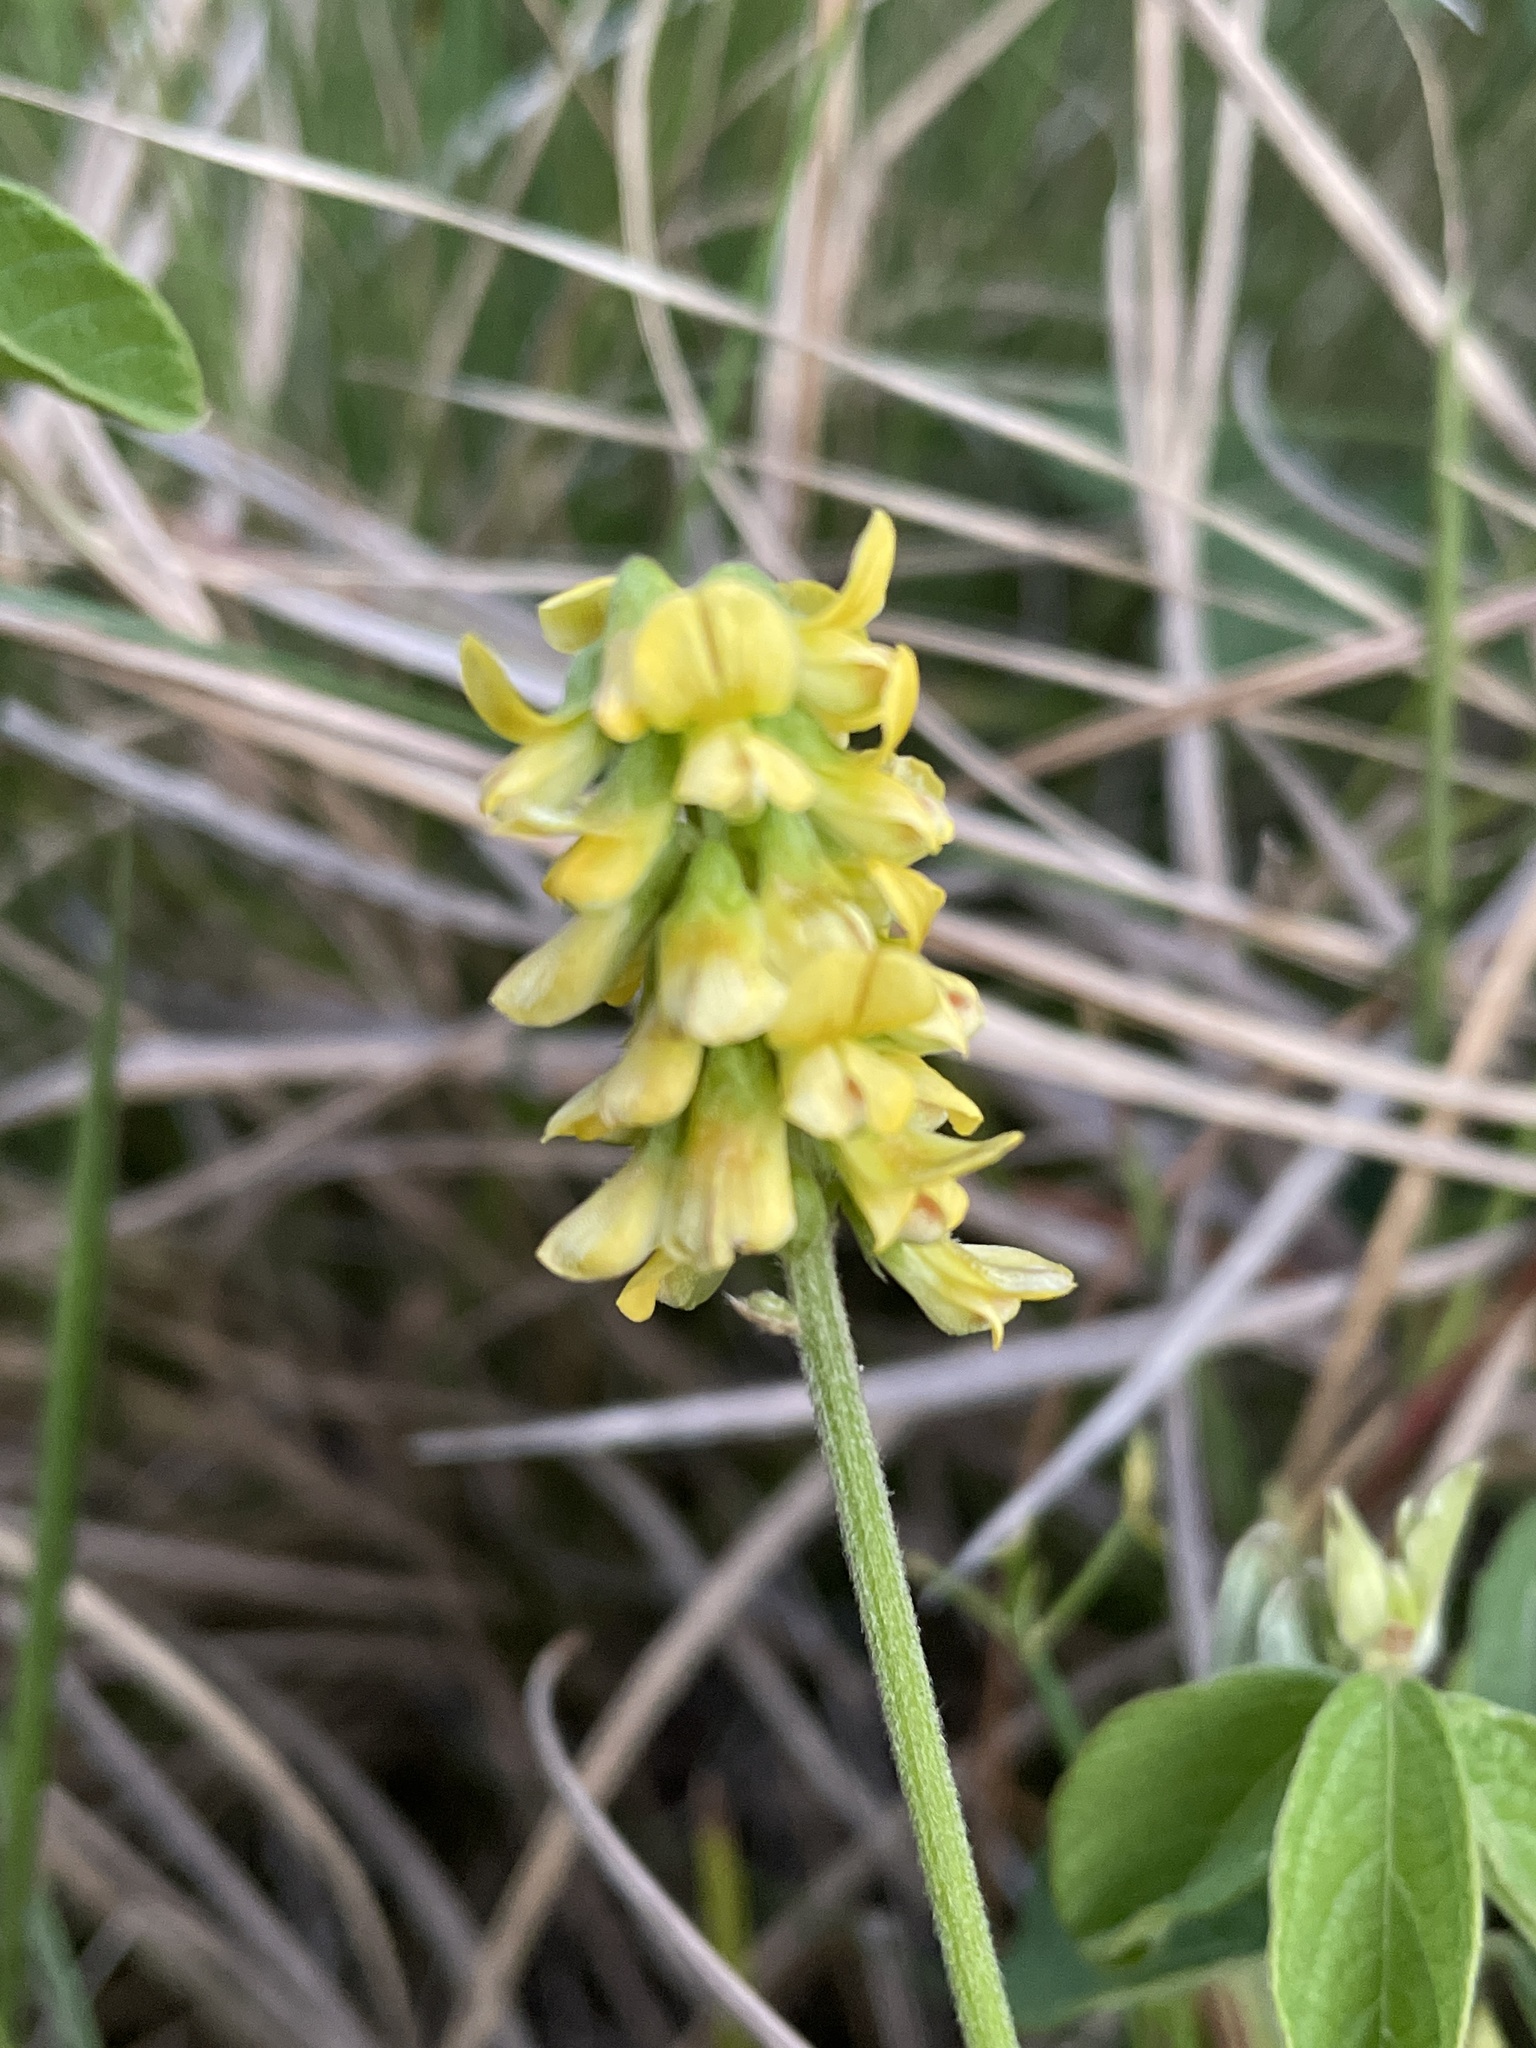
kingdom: Plantae
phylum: Tracheophyta
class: Magnoliopsida
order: Fabales
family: Fabaceae
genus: Eriosema
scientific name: Eriosema parviflorum
